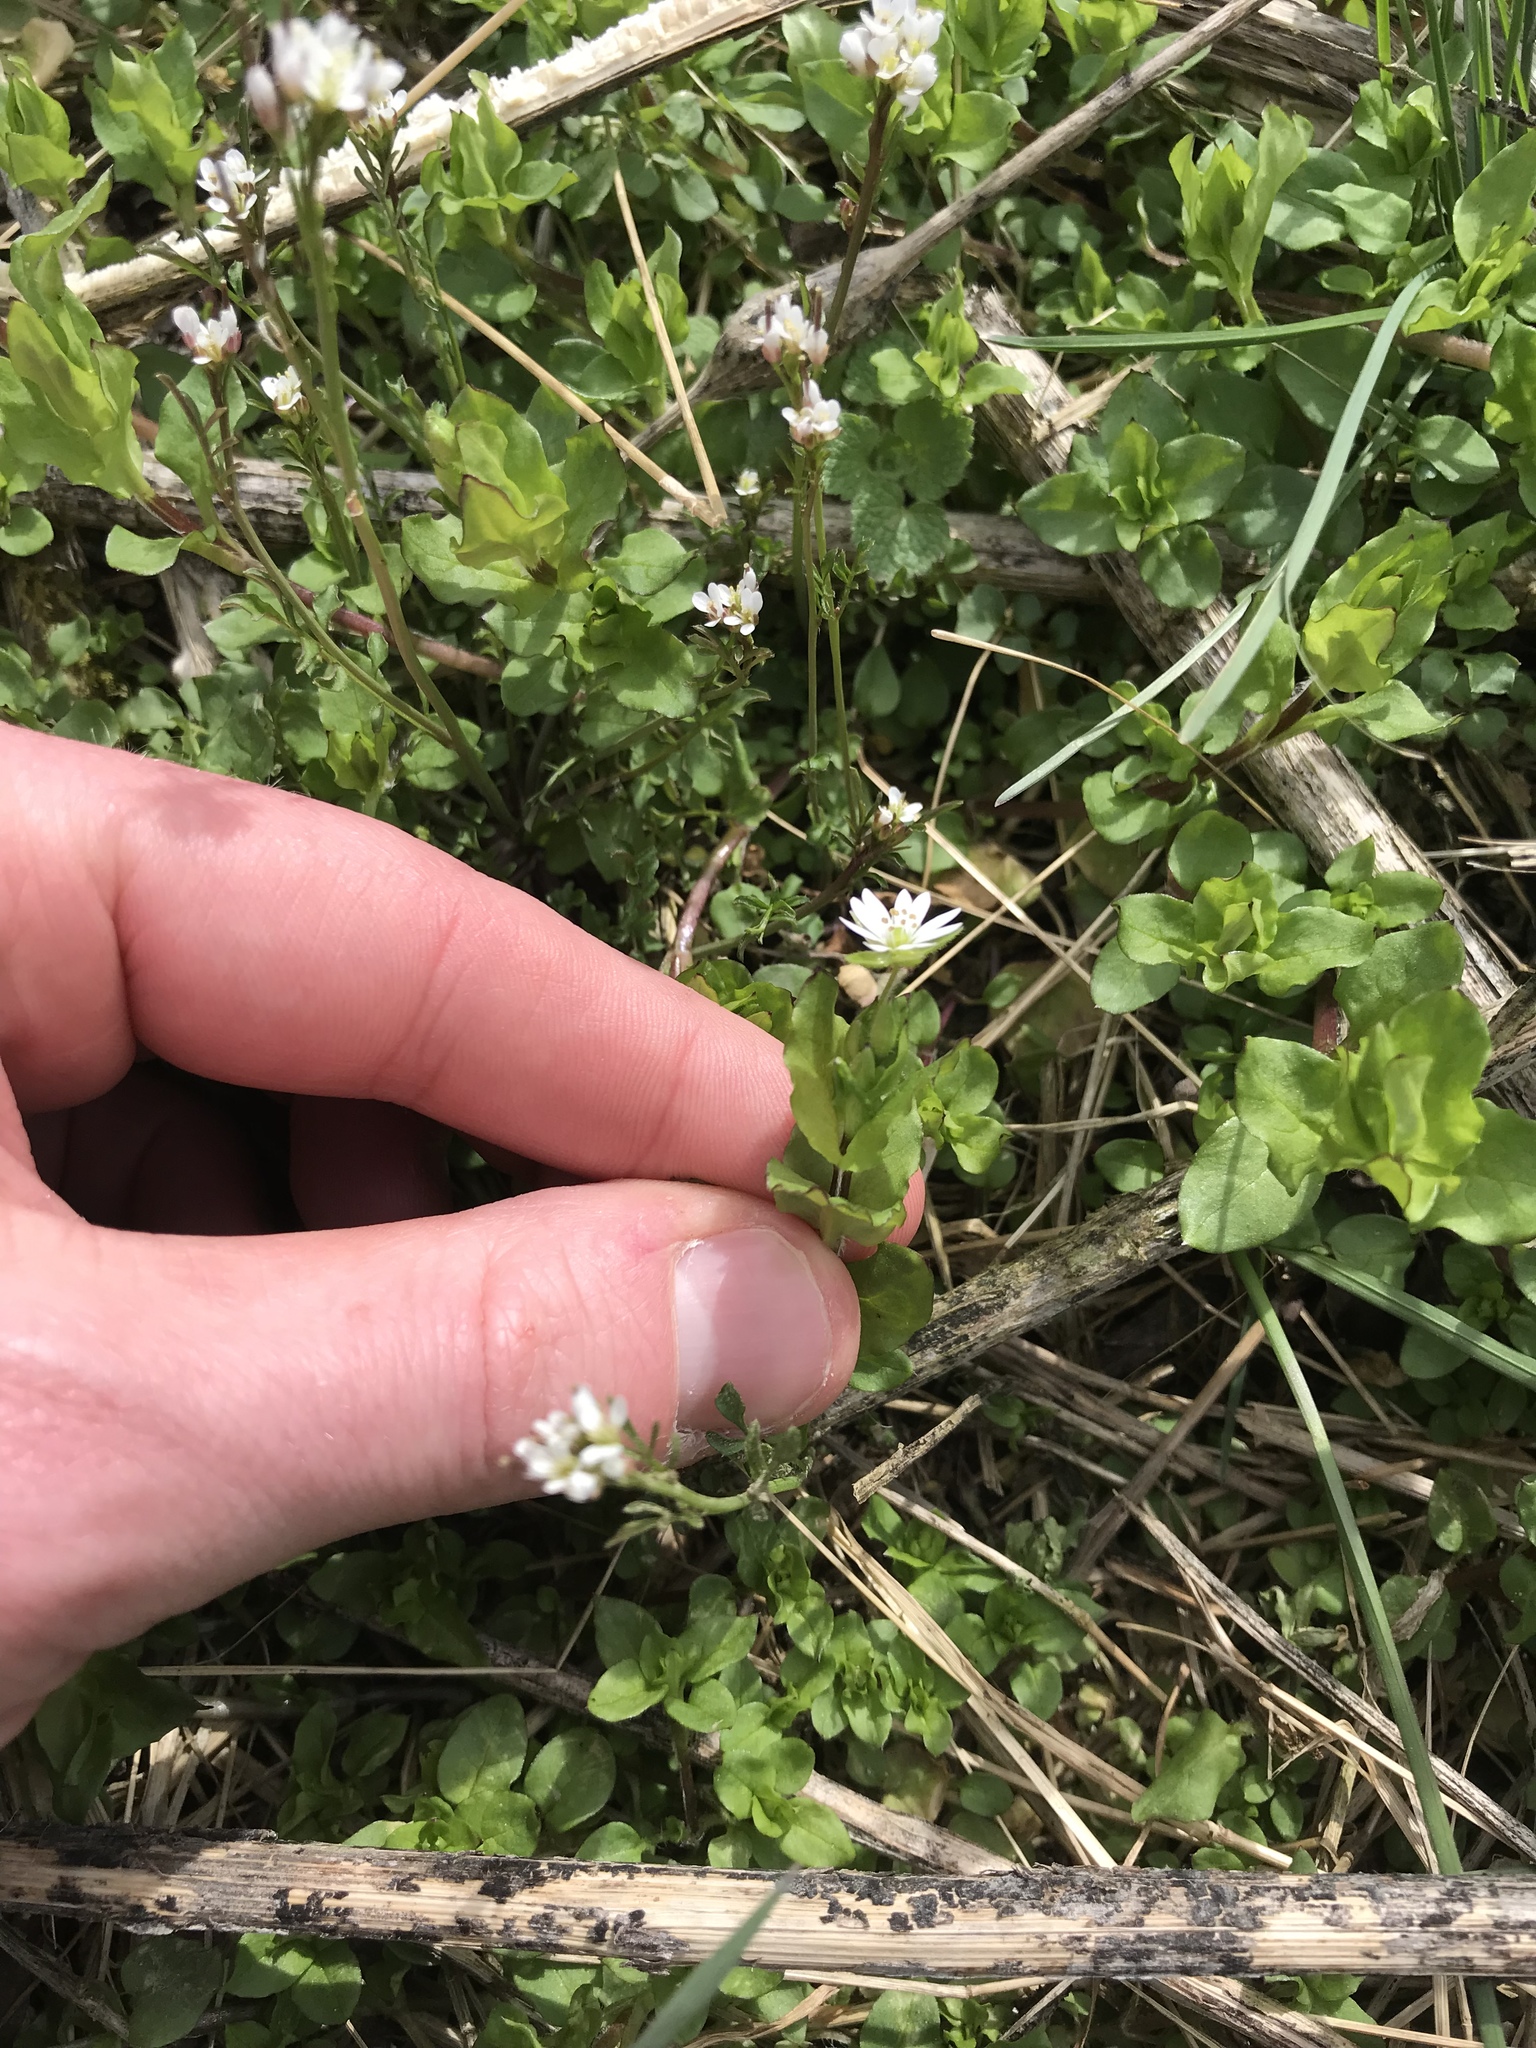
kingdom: Plantae
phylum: Tracheophyta
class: Magnoliopsida
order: Caryophyllales
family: Caryophyllaceae
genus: Stellaria
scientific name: Stellaria media
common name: Common chickweed
